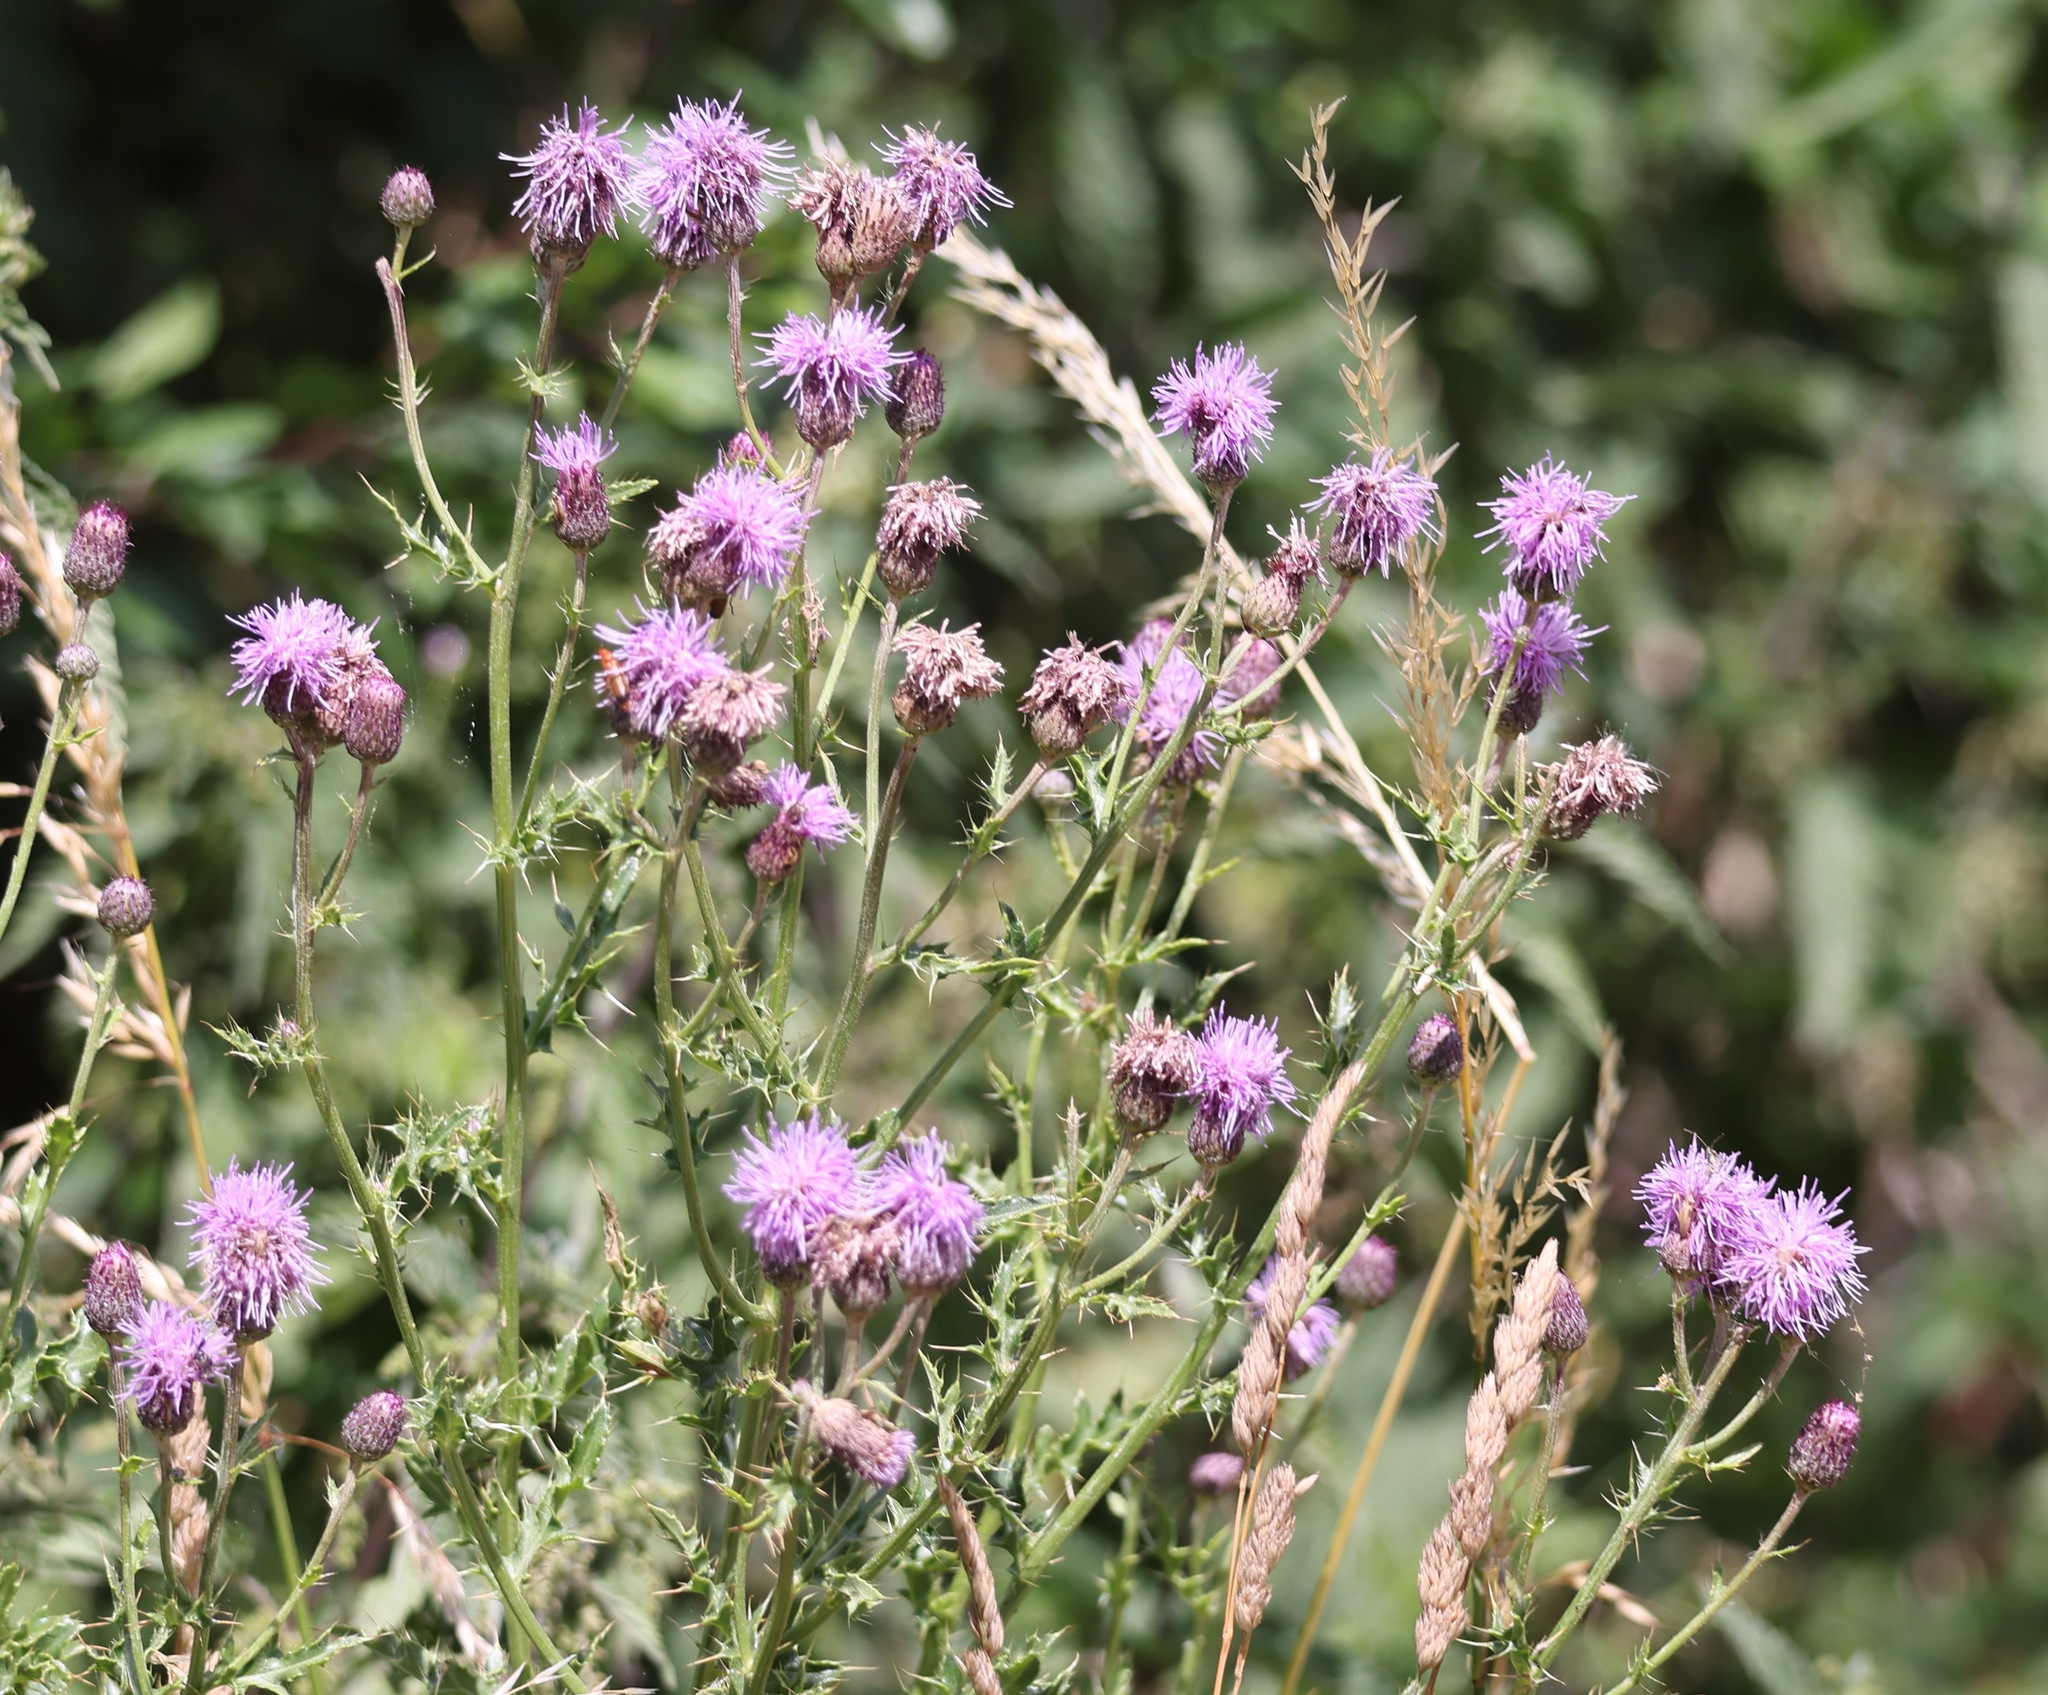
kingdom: Plantae
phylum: Tracheophyta
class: Magnoliopsida
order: Asterales
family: Asteraceae
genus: Cirsium
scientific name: Cirsium arvense
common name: Creeping thistle
